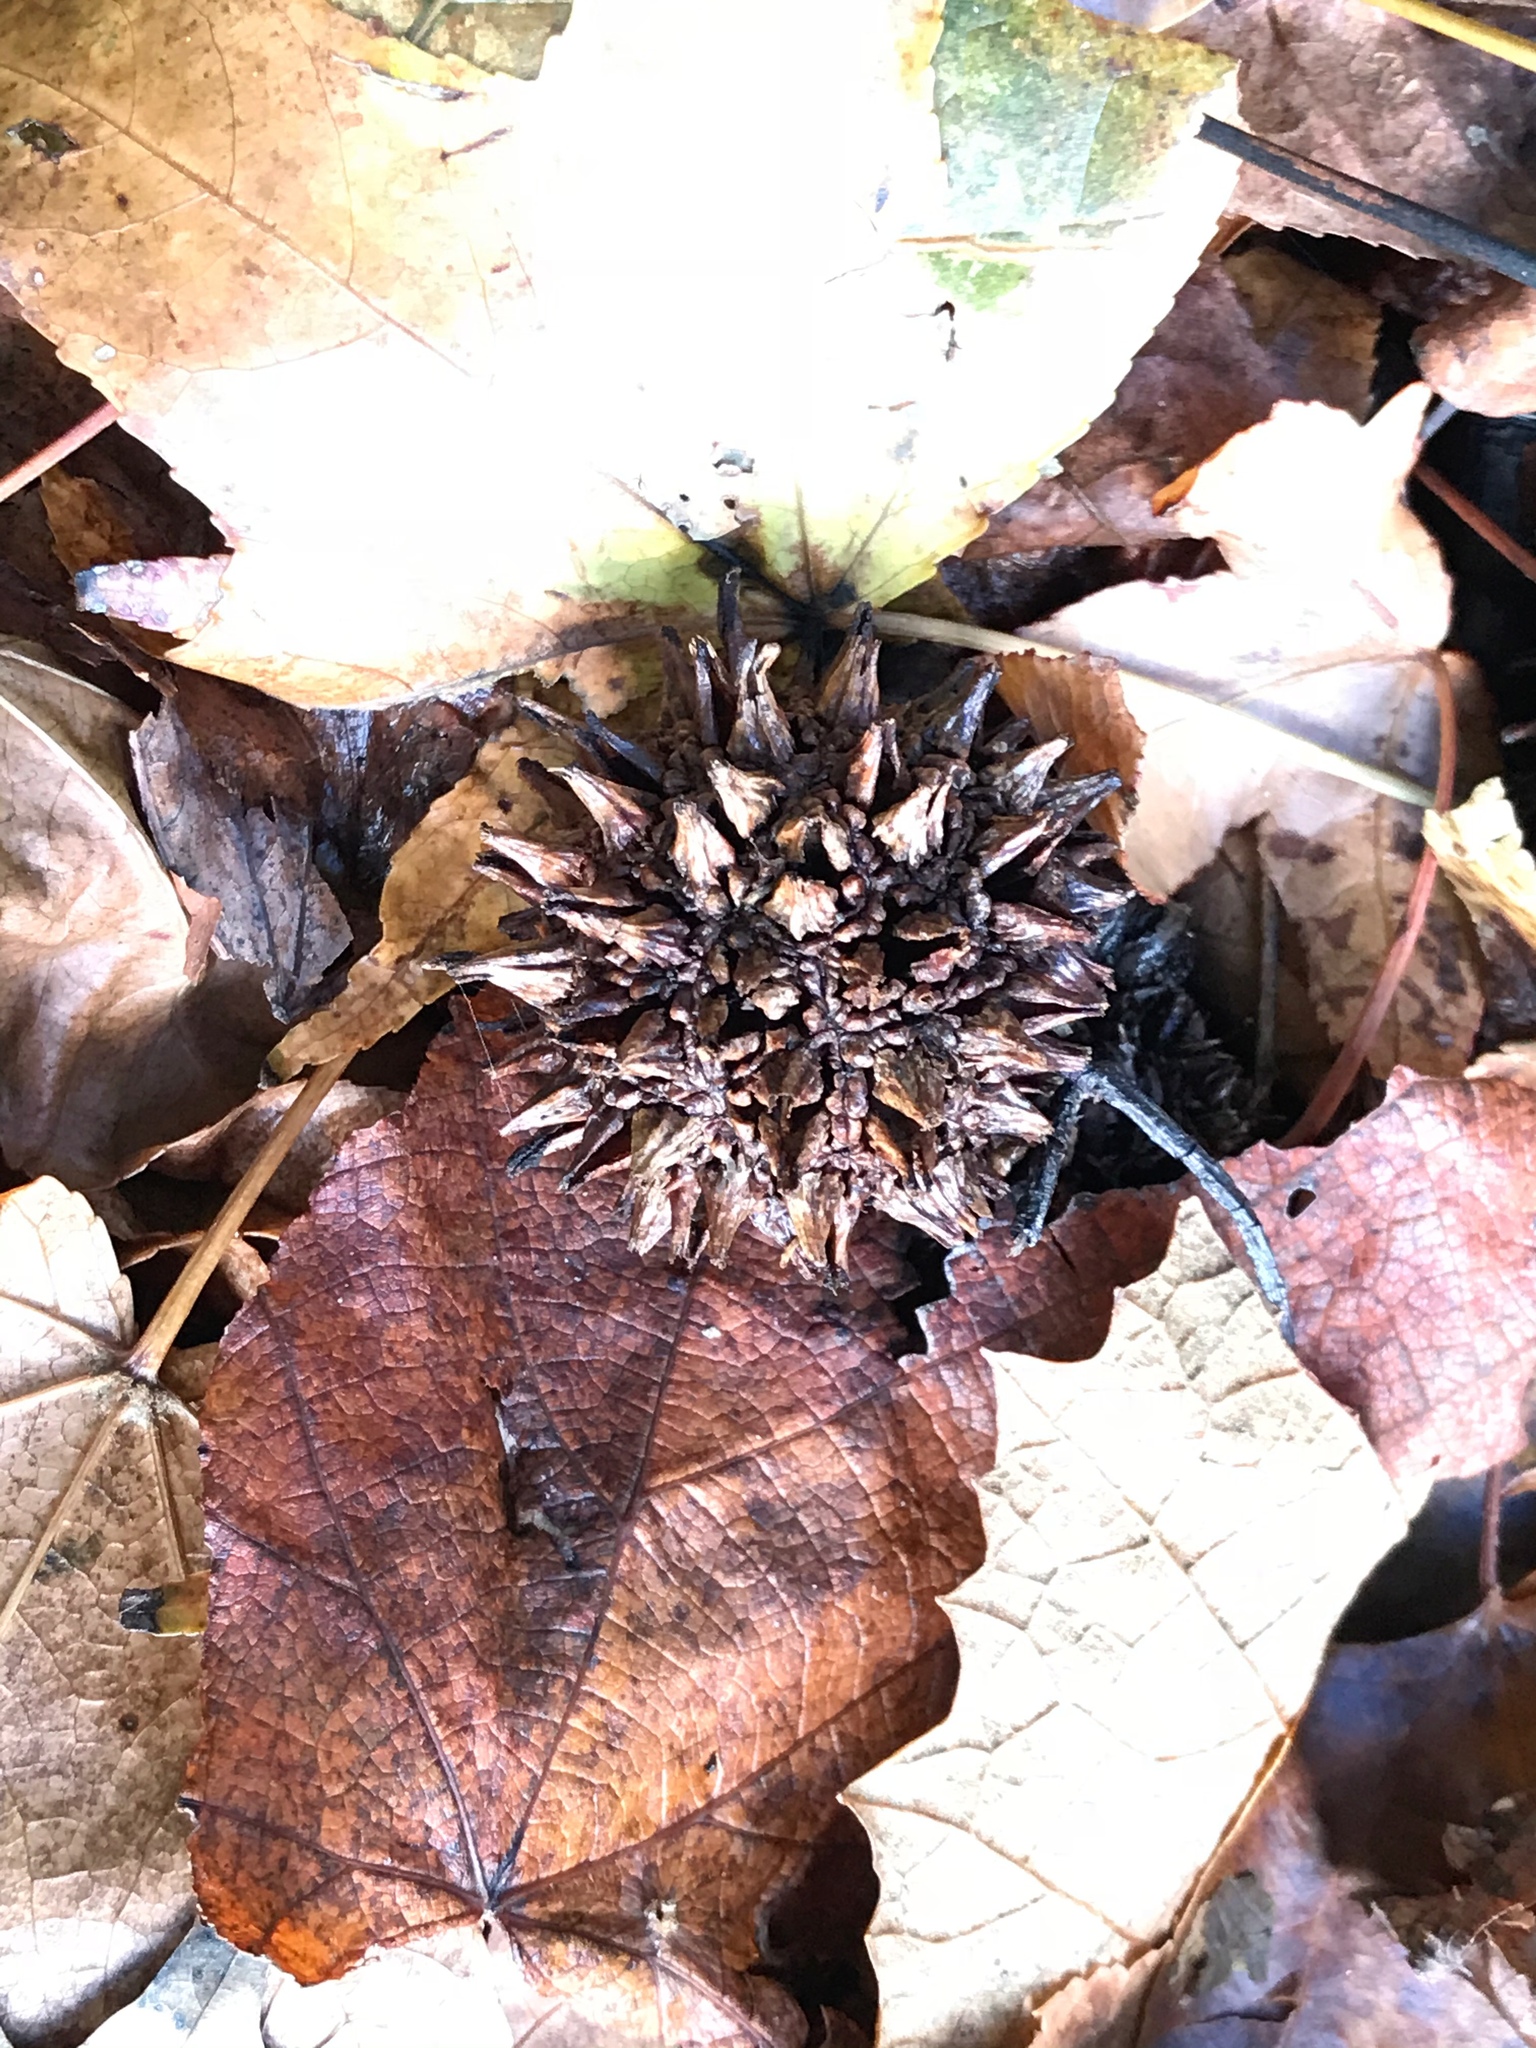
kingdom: Plantae
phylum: Tracheophyta
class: Magnoliopsida
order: Saxifragales
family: Altingiaceae
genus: Liquidambar
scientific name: Liquidambar styraciflua
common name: Sweet gum
